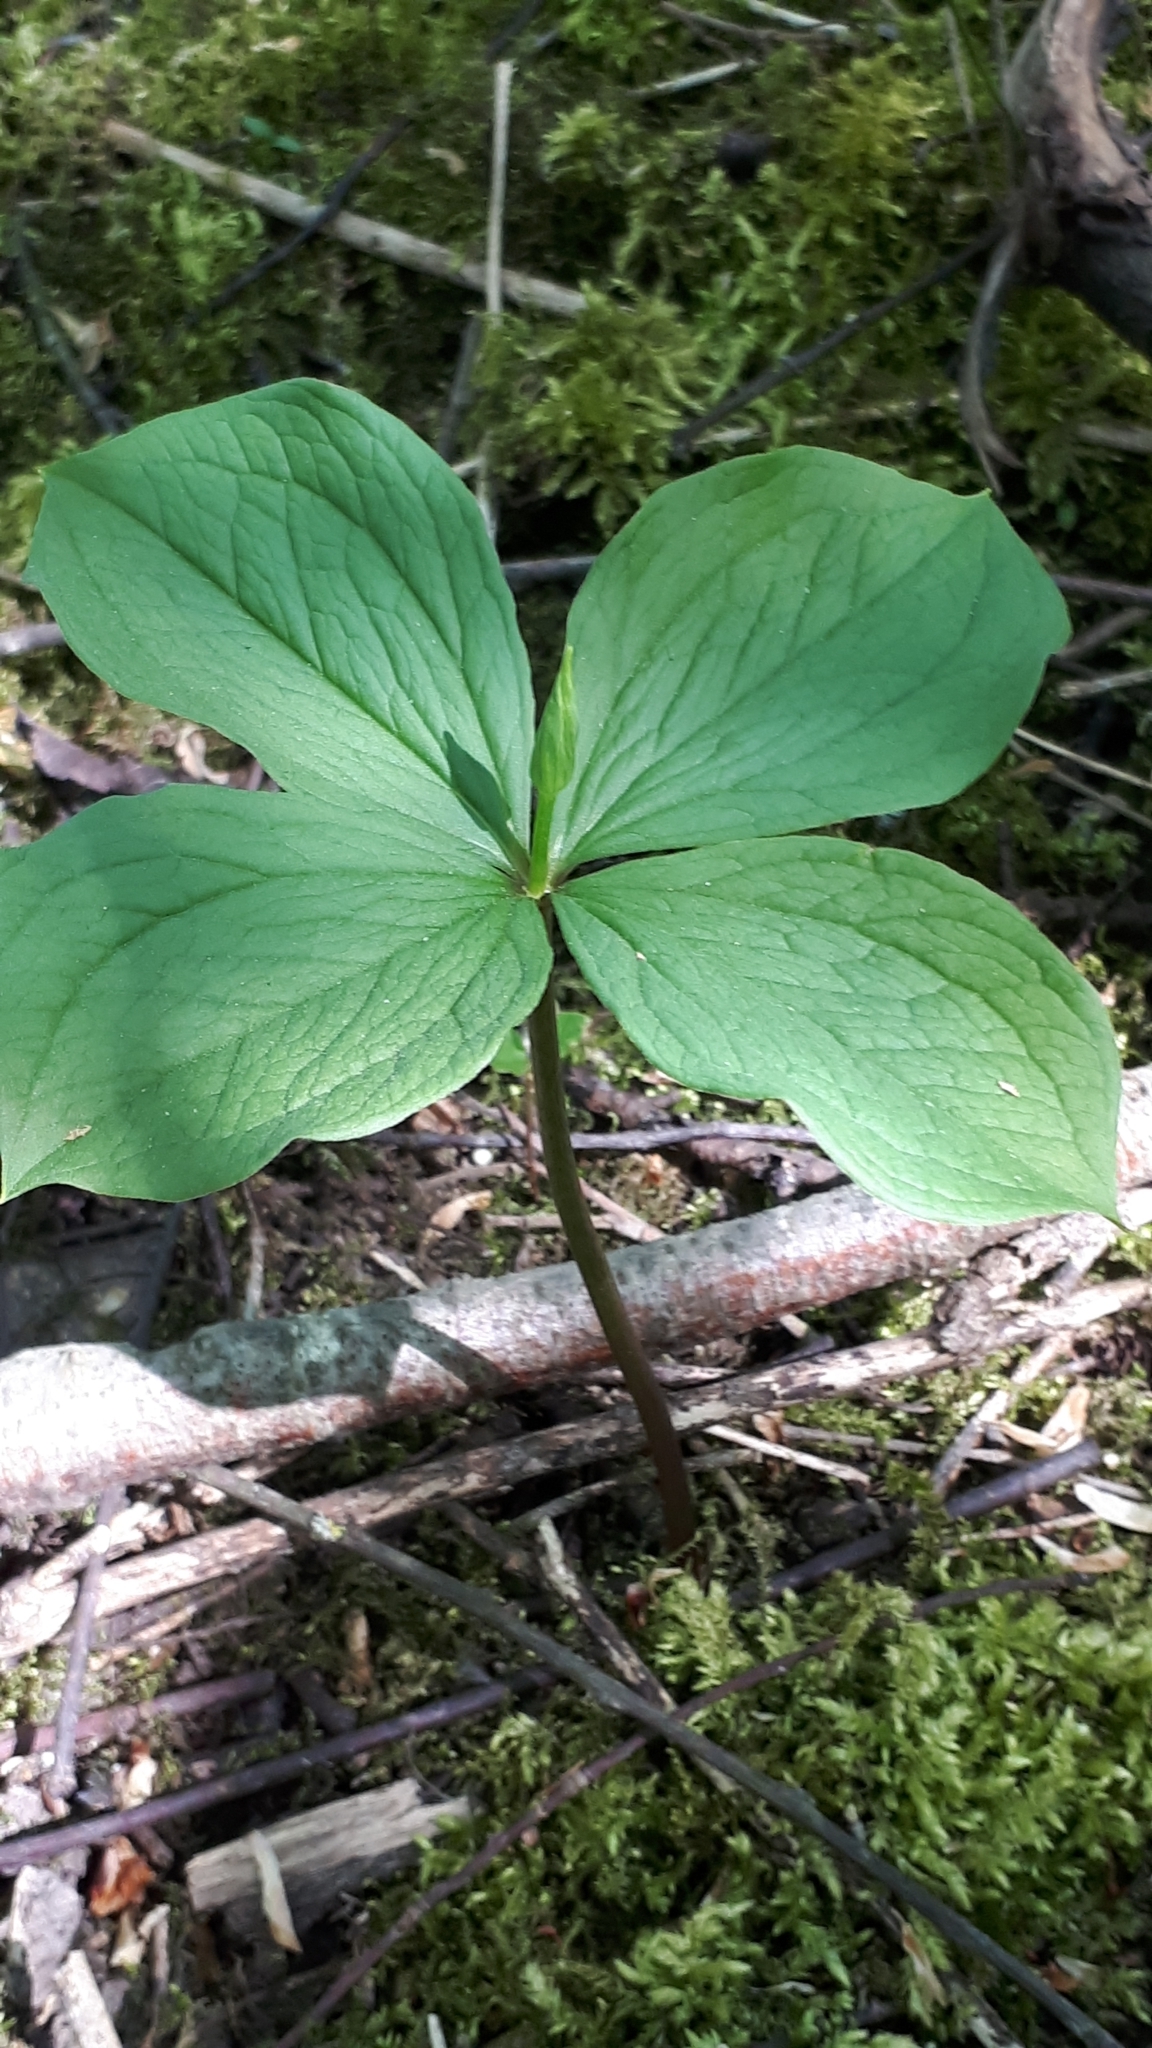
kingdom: Plantae
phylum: Tracheophyta
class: Liliopsida
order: Liliales
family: Melanthiaceae
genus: Paris
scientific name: Paris quadrifolia
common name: Herb-paris
